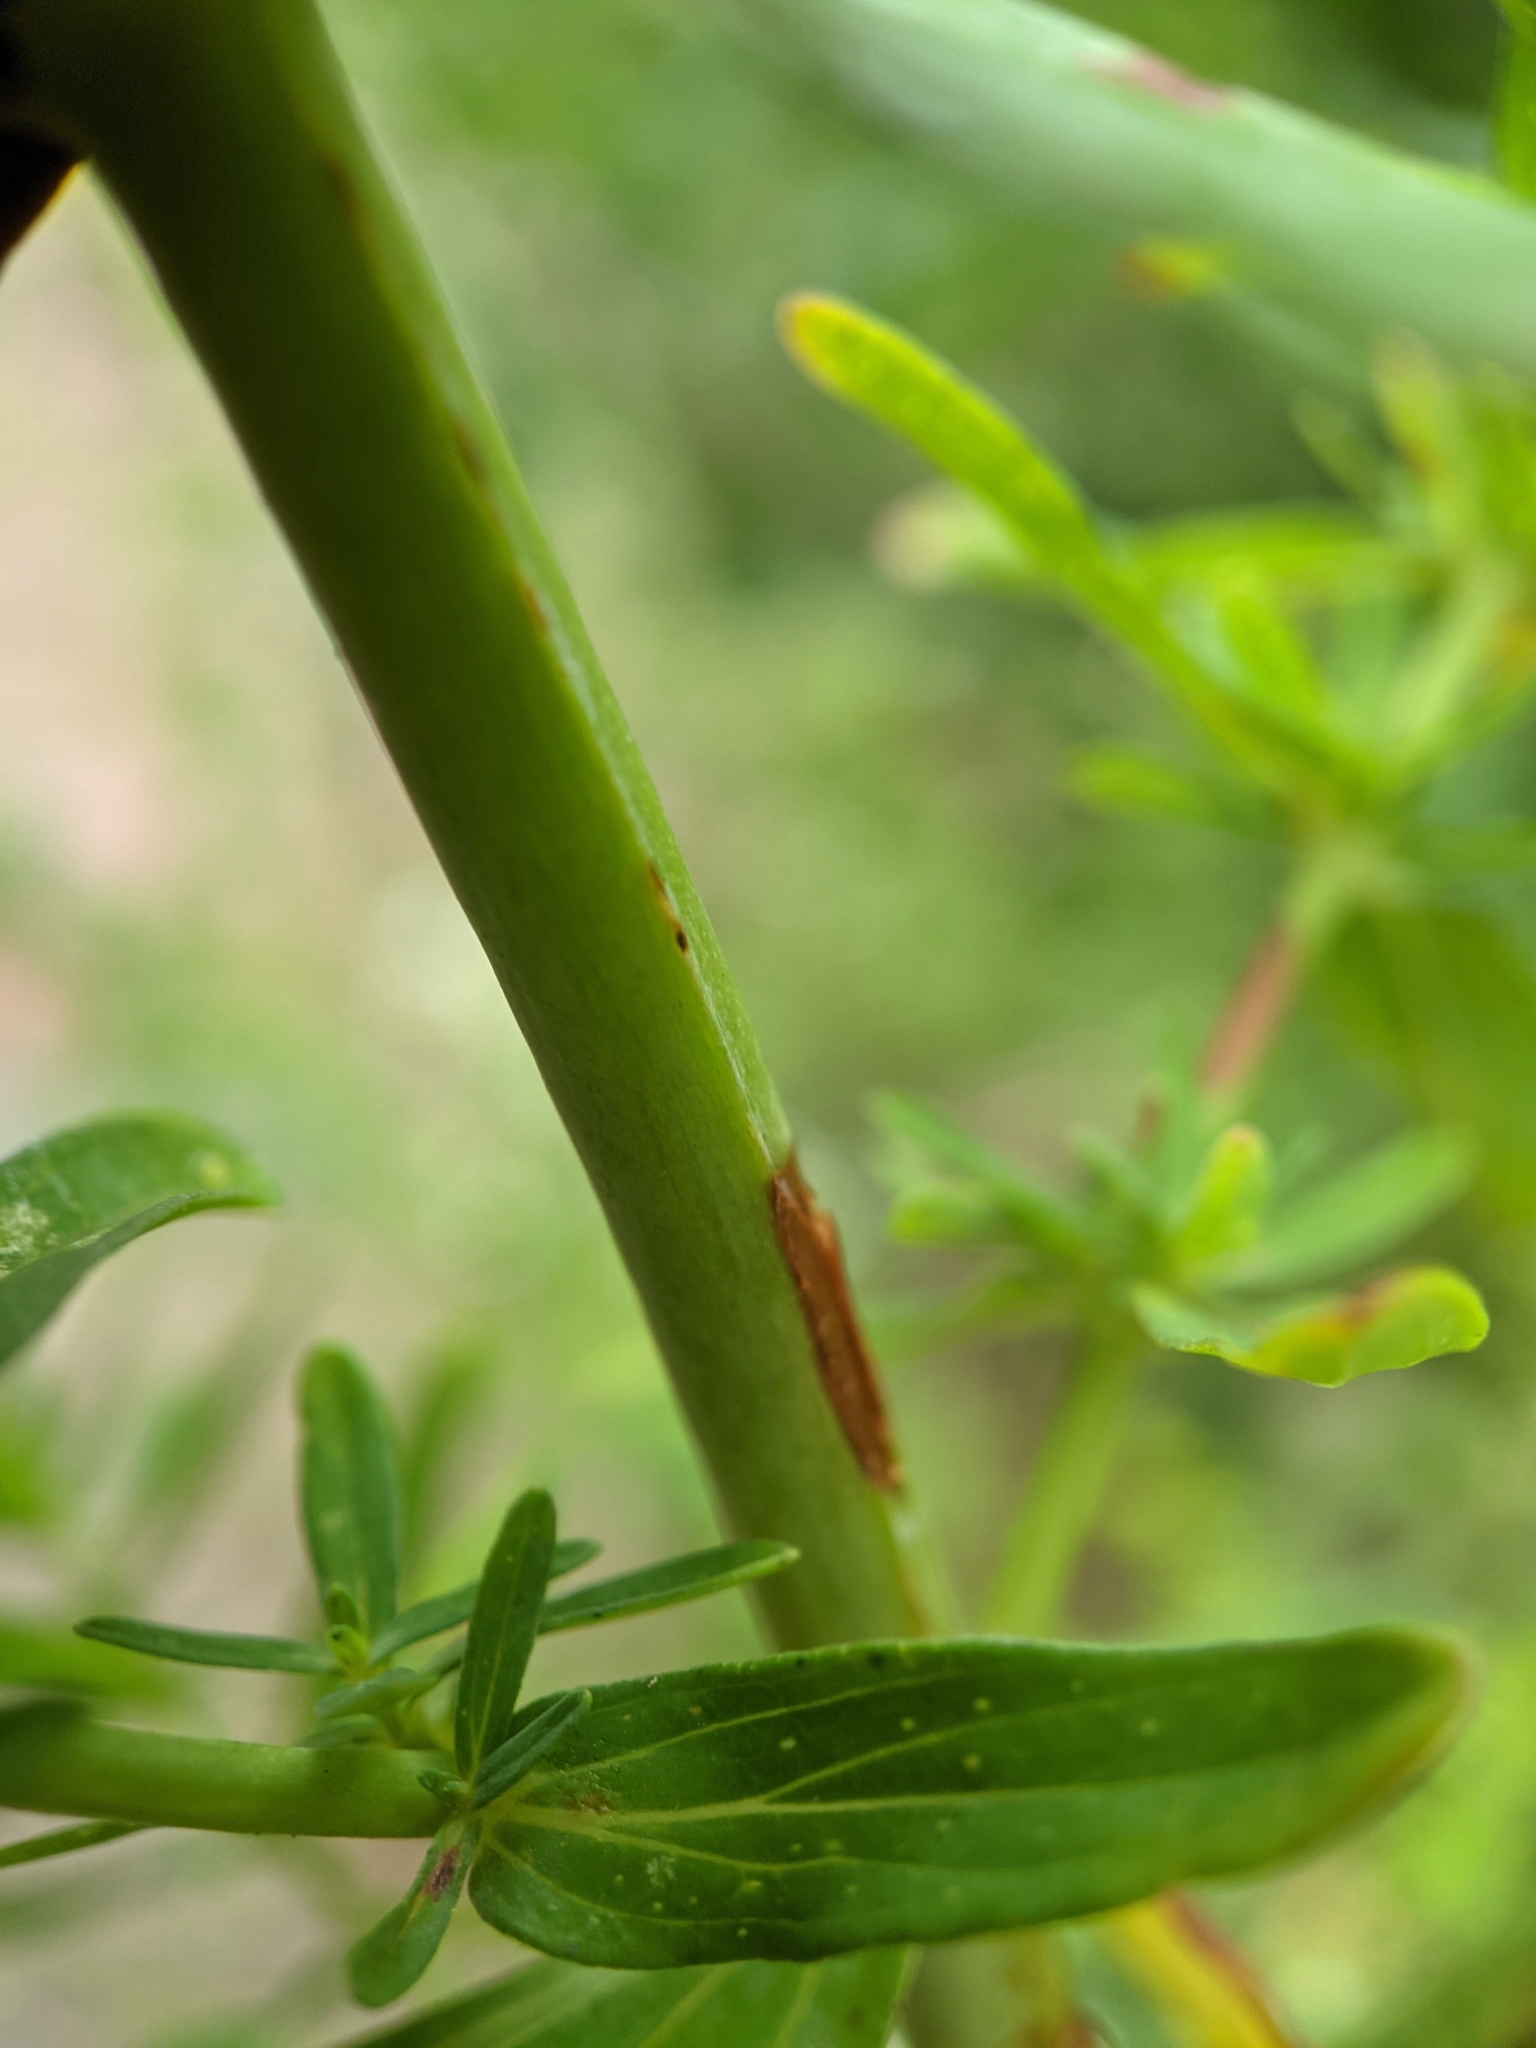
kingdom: Plantae
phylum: Tracheophyta
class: Magnoliopsida
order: Malpighiales
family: Hypericaceae
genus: Hypericum
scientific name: Hypericum perforatum
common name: Common st. johnswort
